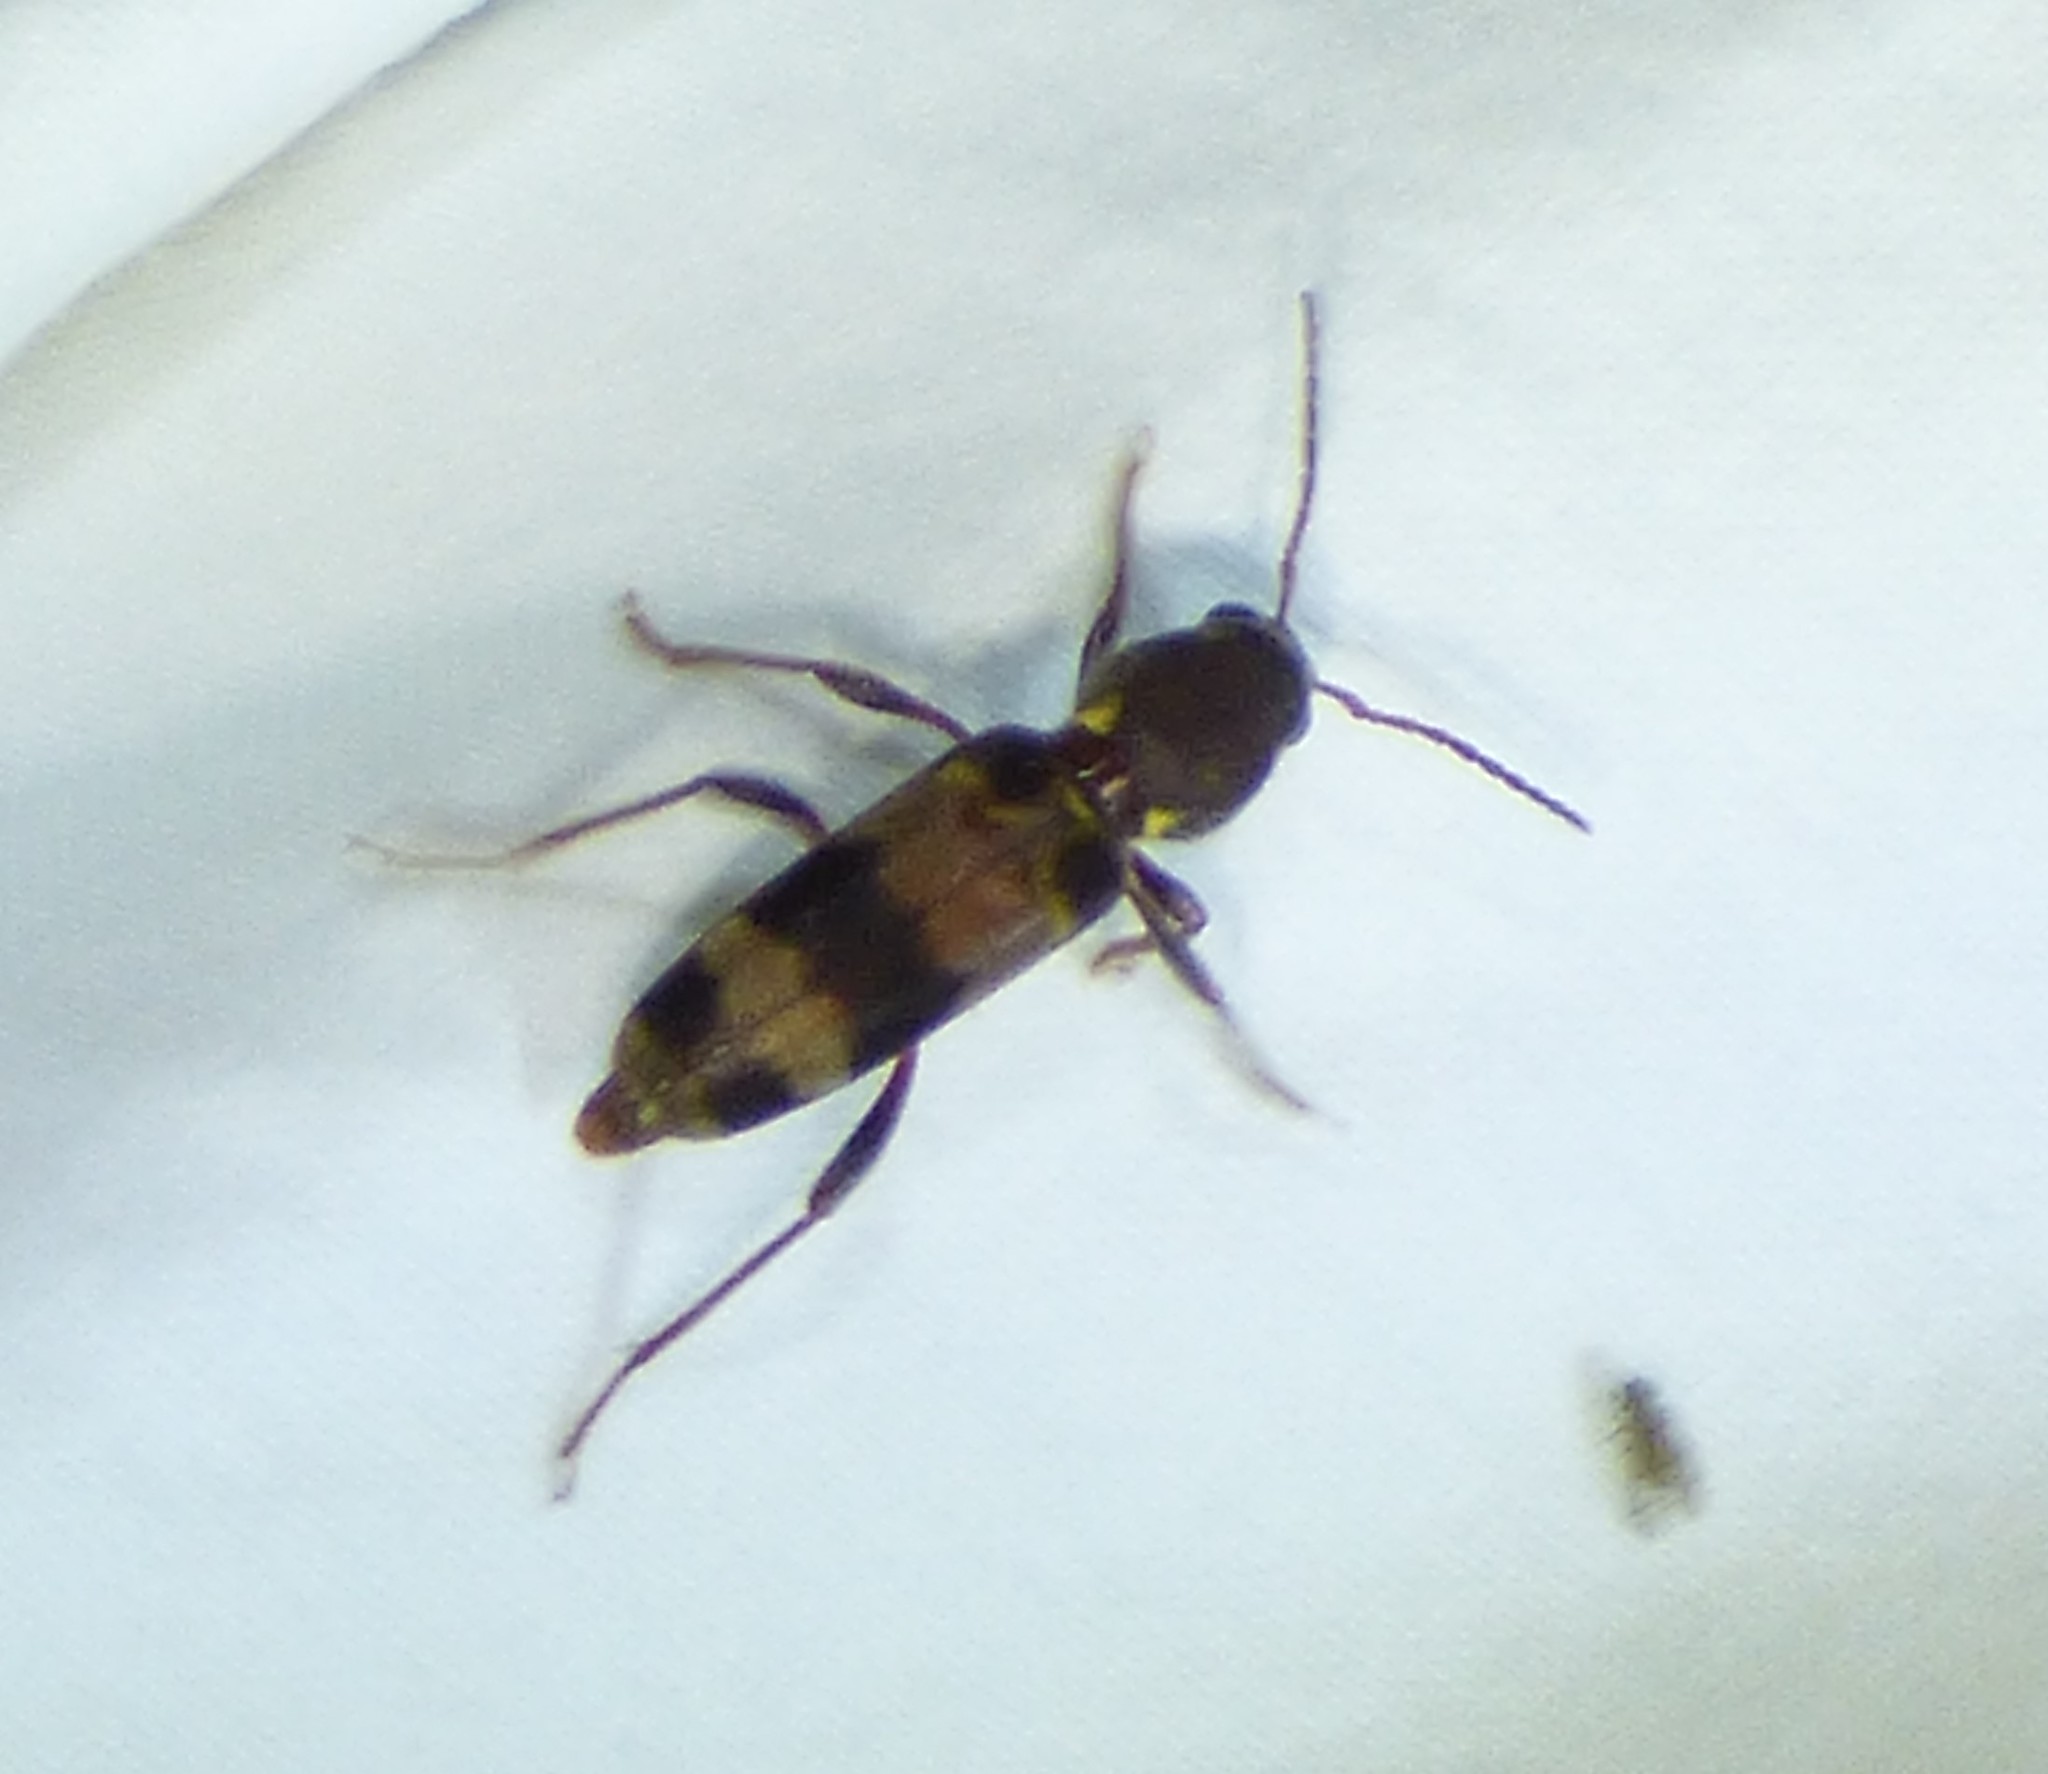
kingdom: Animalia
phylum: Arthropoda
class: Insecta
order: Coleoptera
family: Cerambycidae
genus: Xylotrechus
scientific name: Xylotrechus colonus
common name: Long-horned beetle
